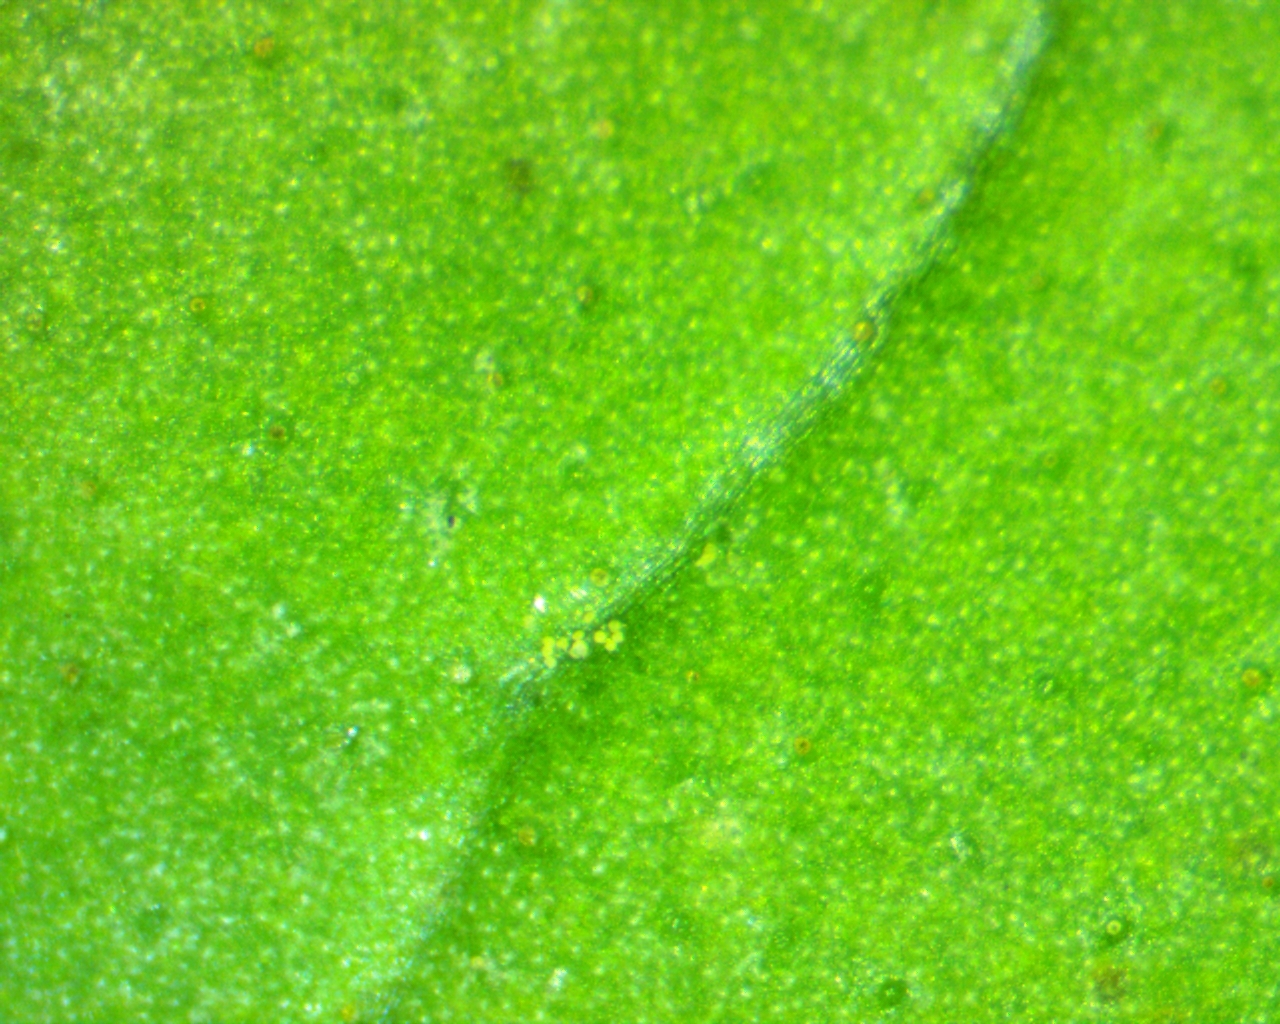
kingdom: Plantae
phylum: Tracheophyta
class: Magnoliopsida
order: Lamiales
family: Oleaceae
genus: Ligustrum
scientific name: Ligustrum lucidum
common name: Glossy privet
